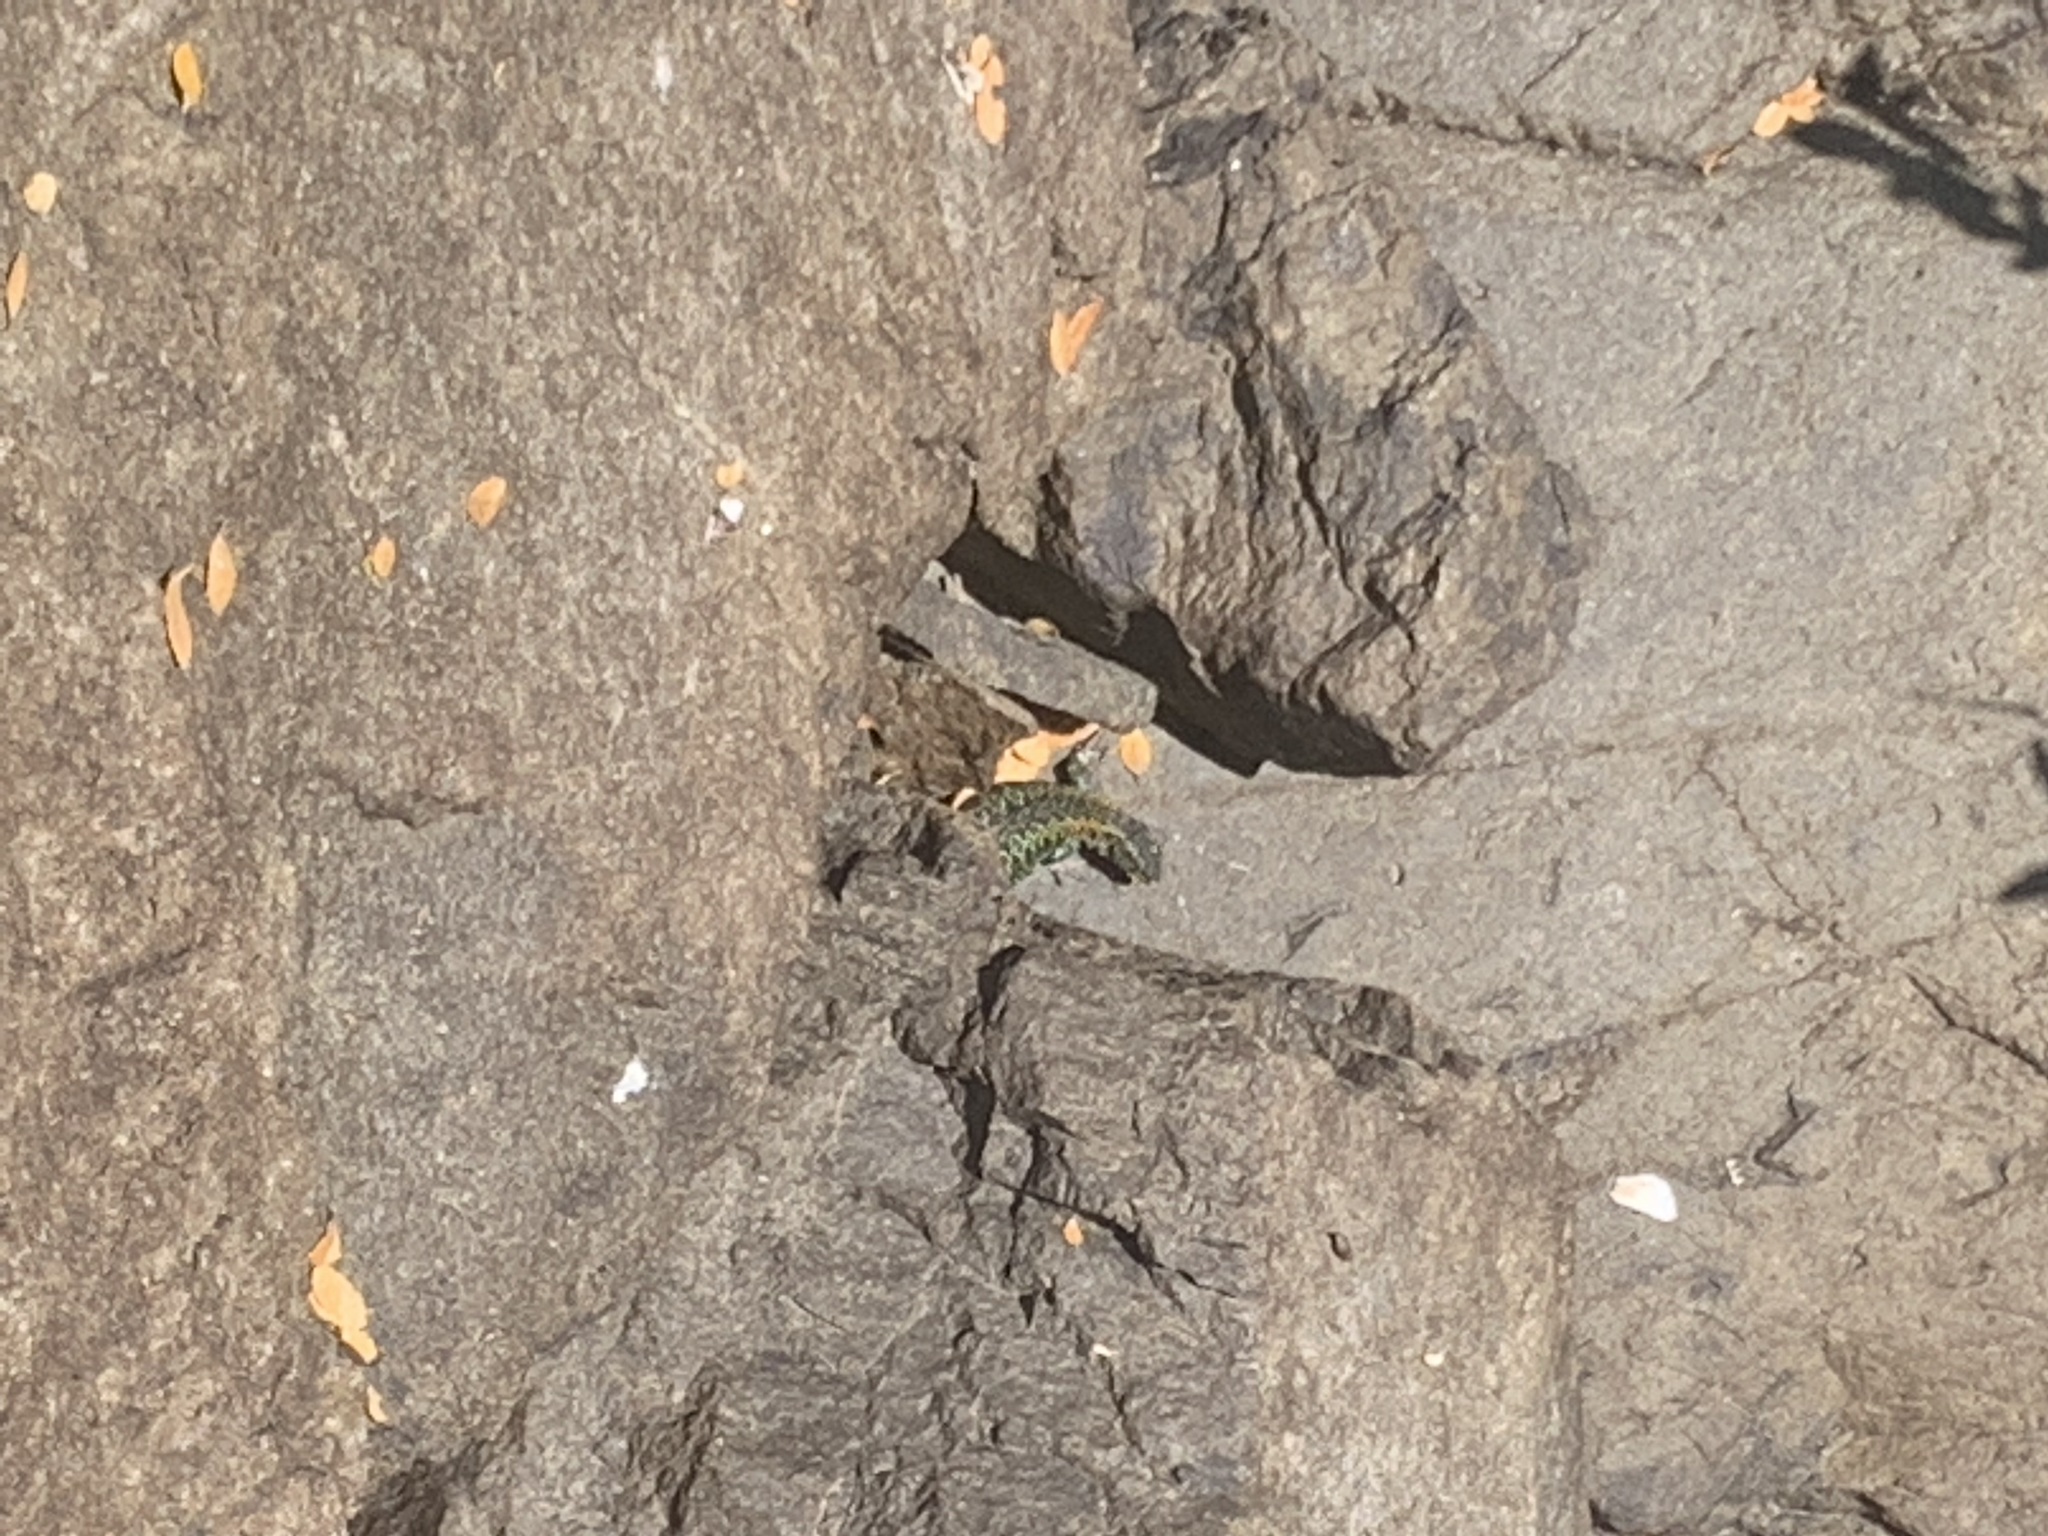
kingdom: Animalia
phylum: Chordata
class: Squamata
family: Liolaemidae
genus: Liolaemus
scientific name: Liolaemus pictus
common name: Painted tree iguana
